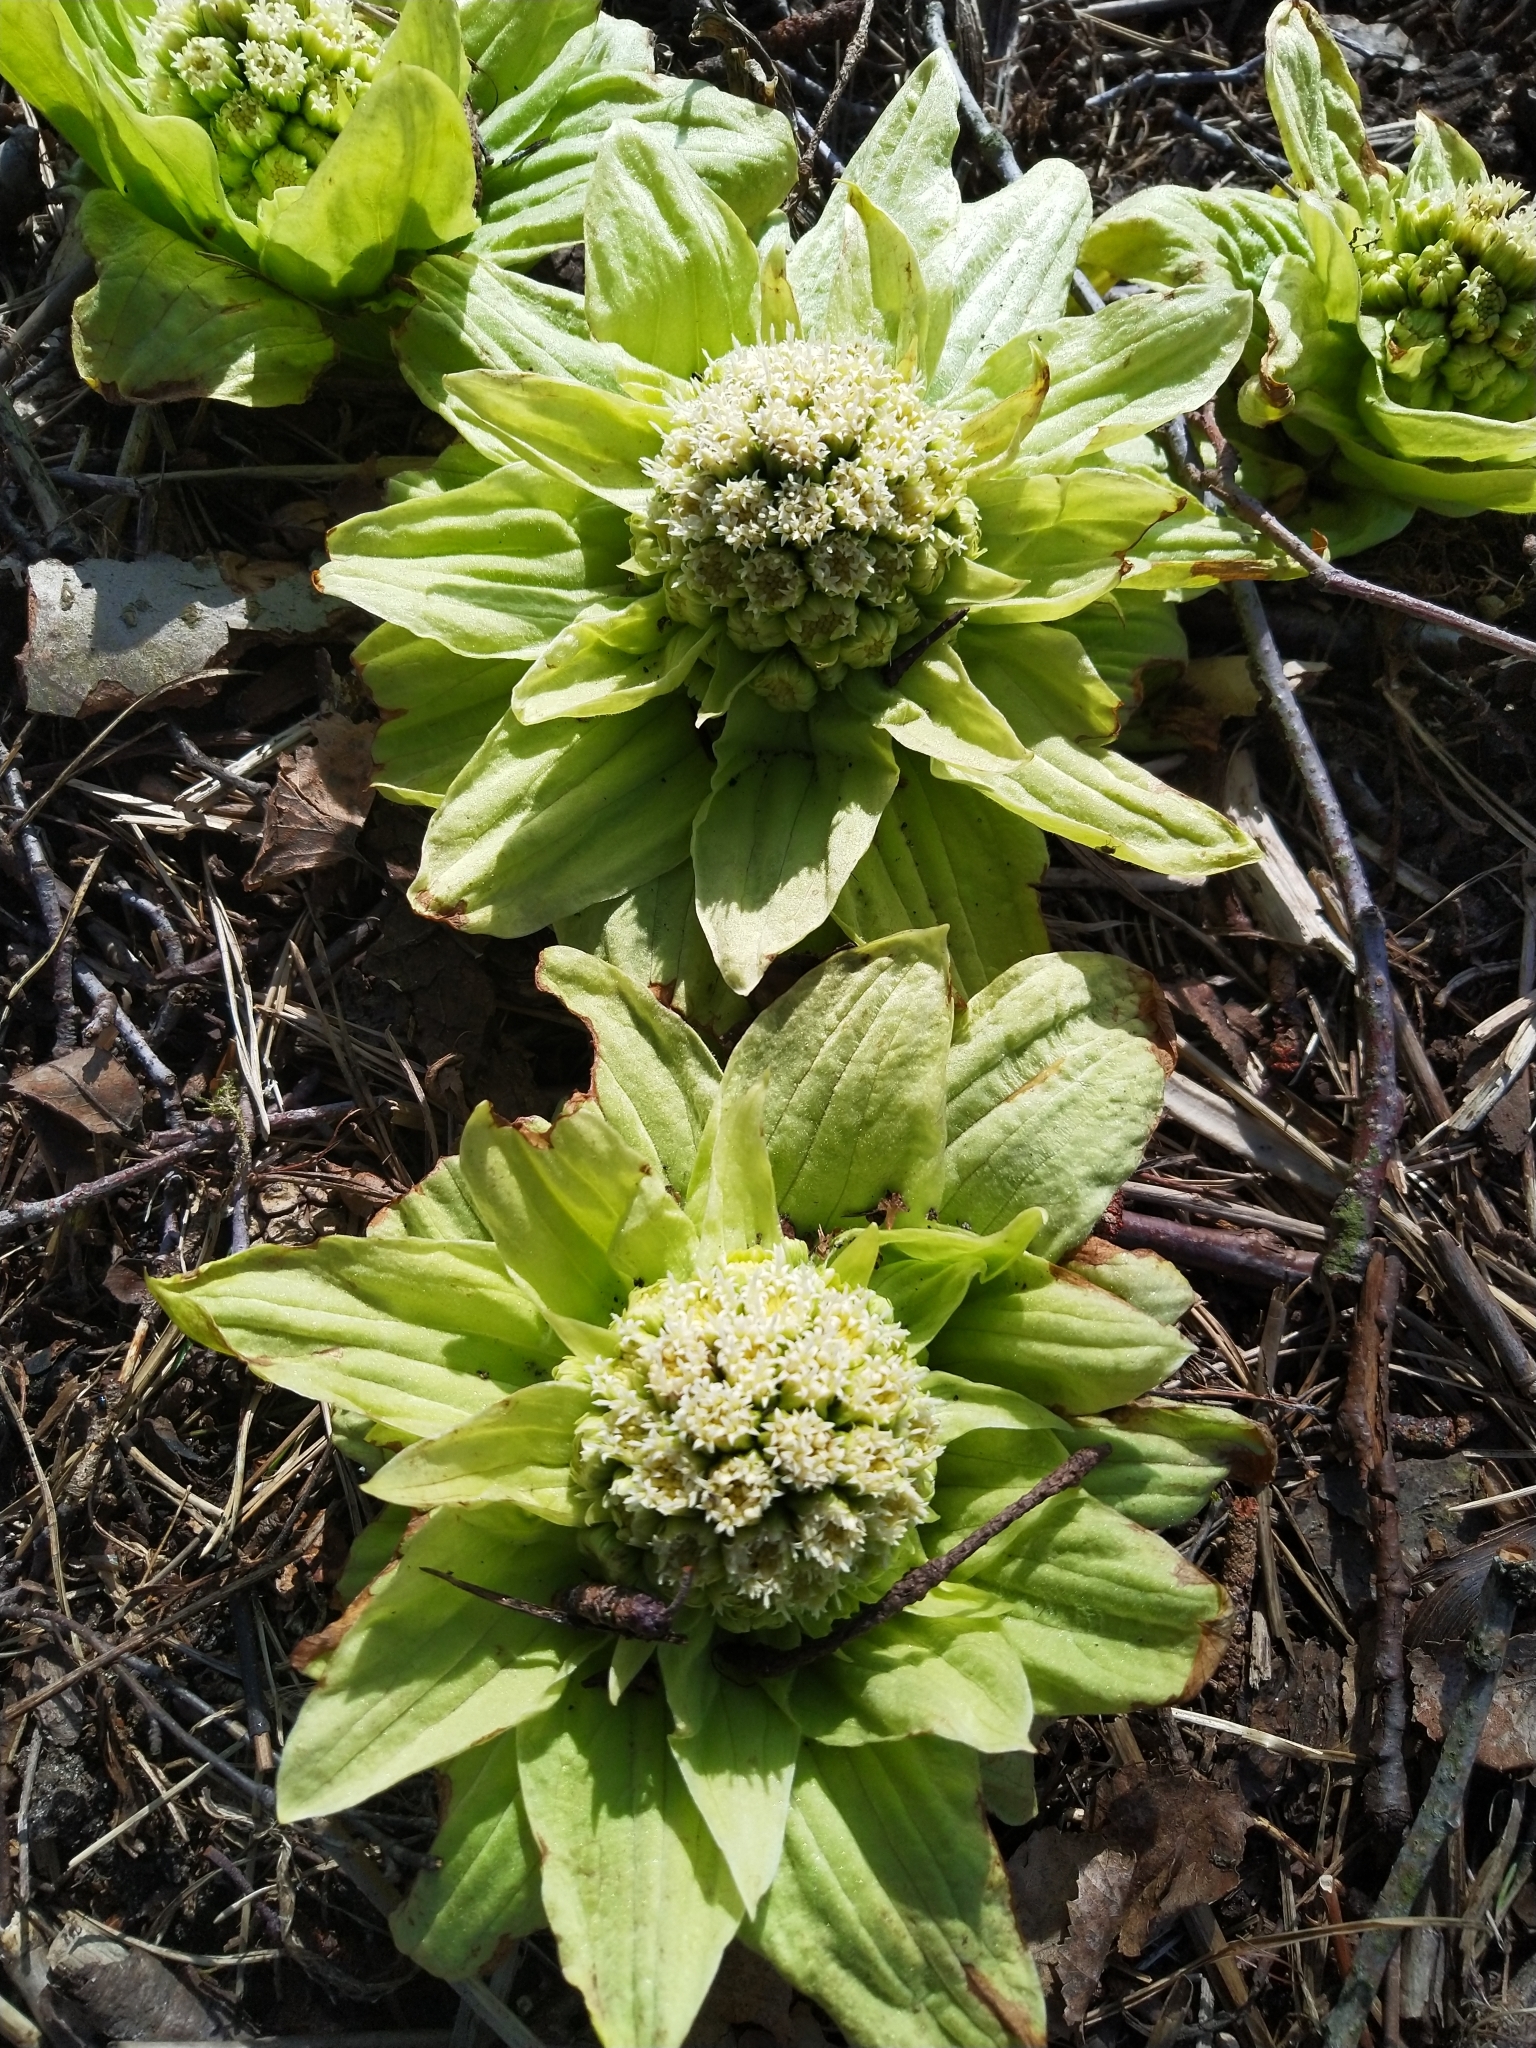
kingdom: Plantae
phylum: Tracheophyta
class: Magnoliopsida
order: Asterales
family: Asteraceae
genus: Petasites
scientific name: Petasites japonicus
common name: Giant butterbur
